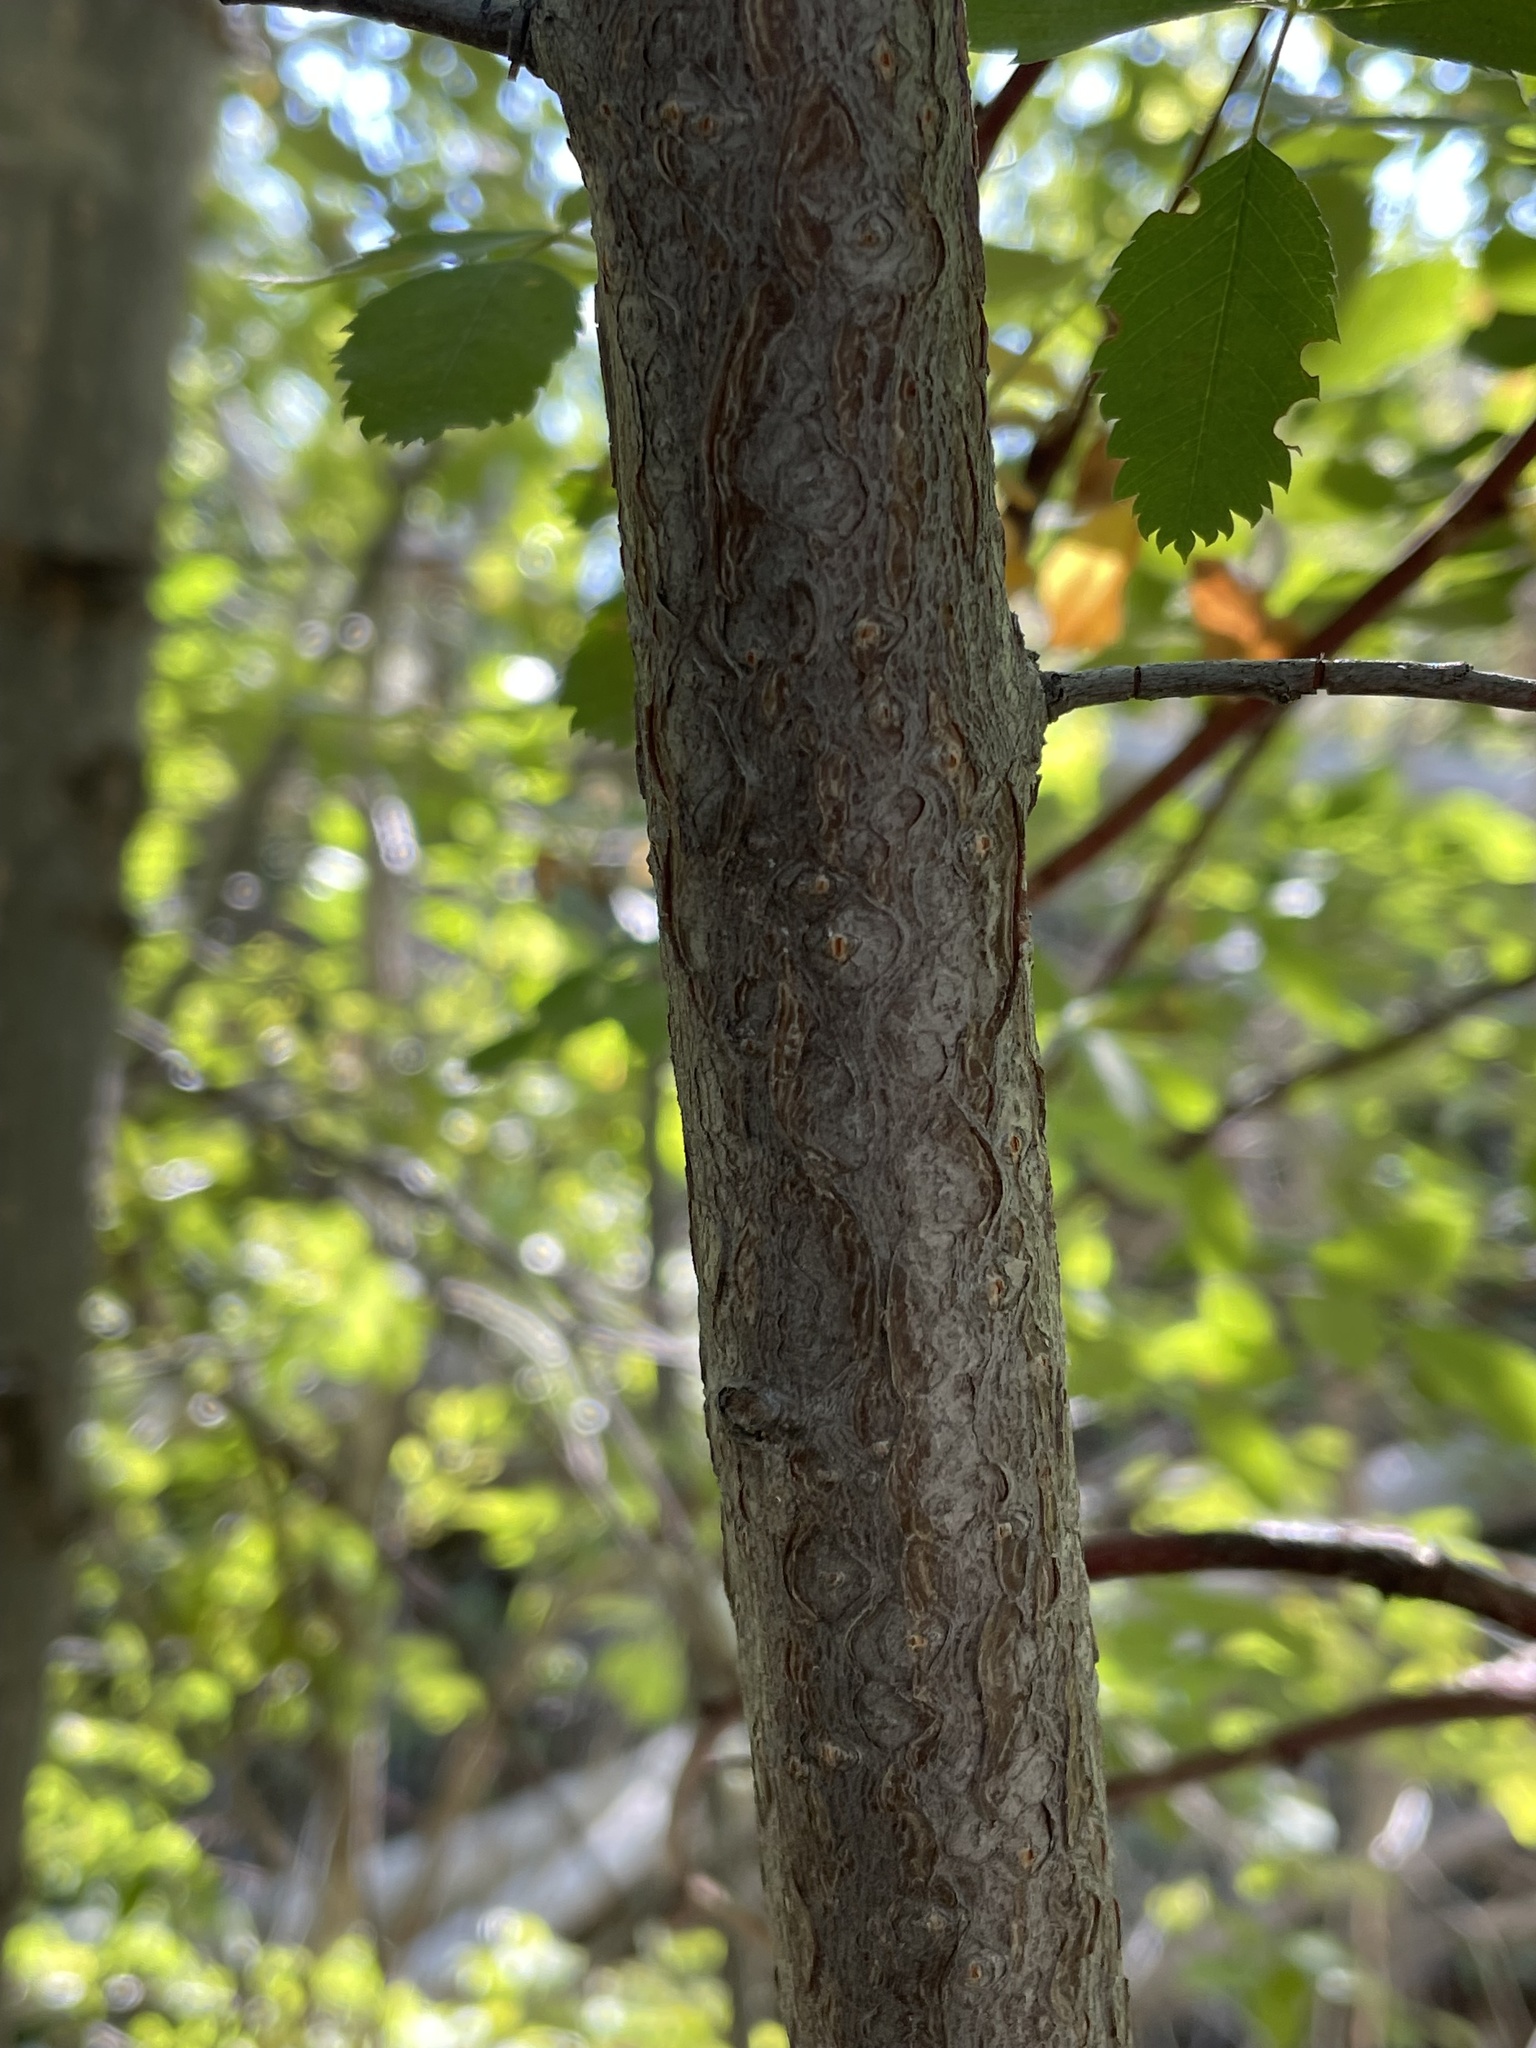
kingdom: Plantae
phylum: Tracheophyta
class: Magnoliopsida
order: Rosales
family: Rosaceae
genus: Prunus
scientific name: Prunus virginiana
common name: Chokecherry
